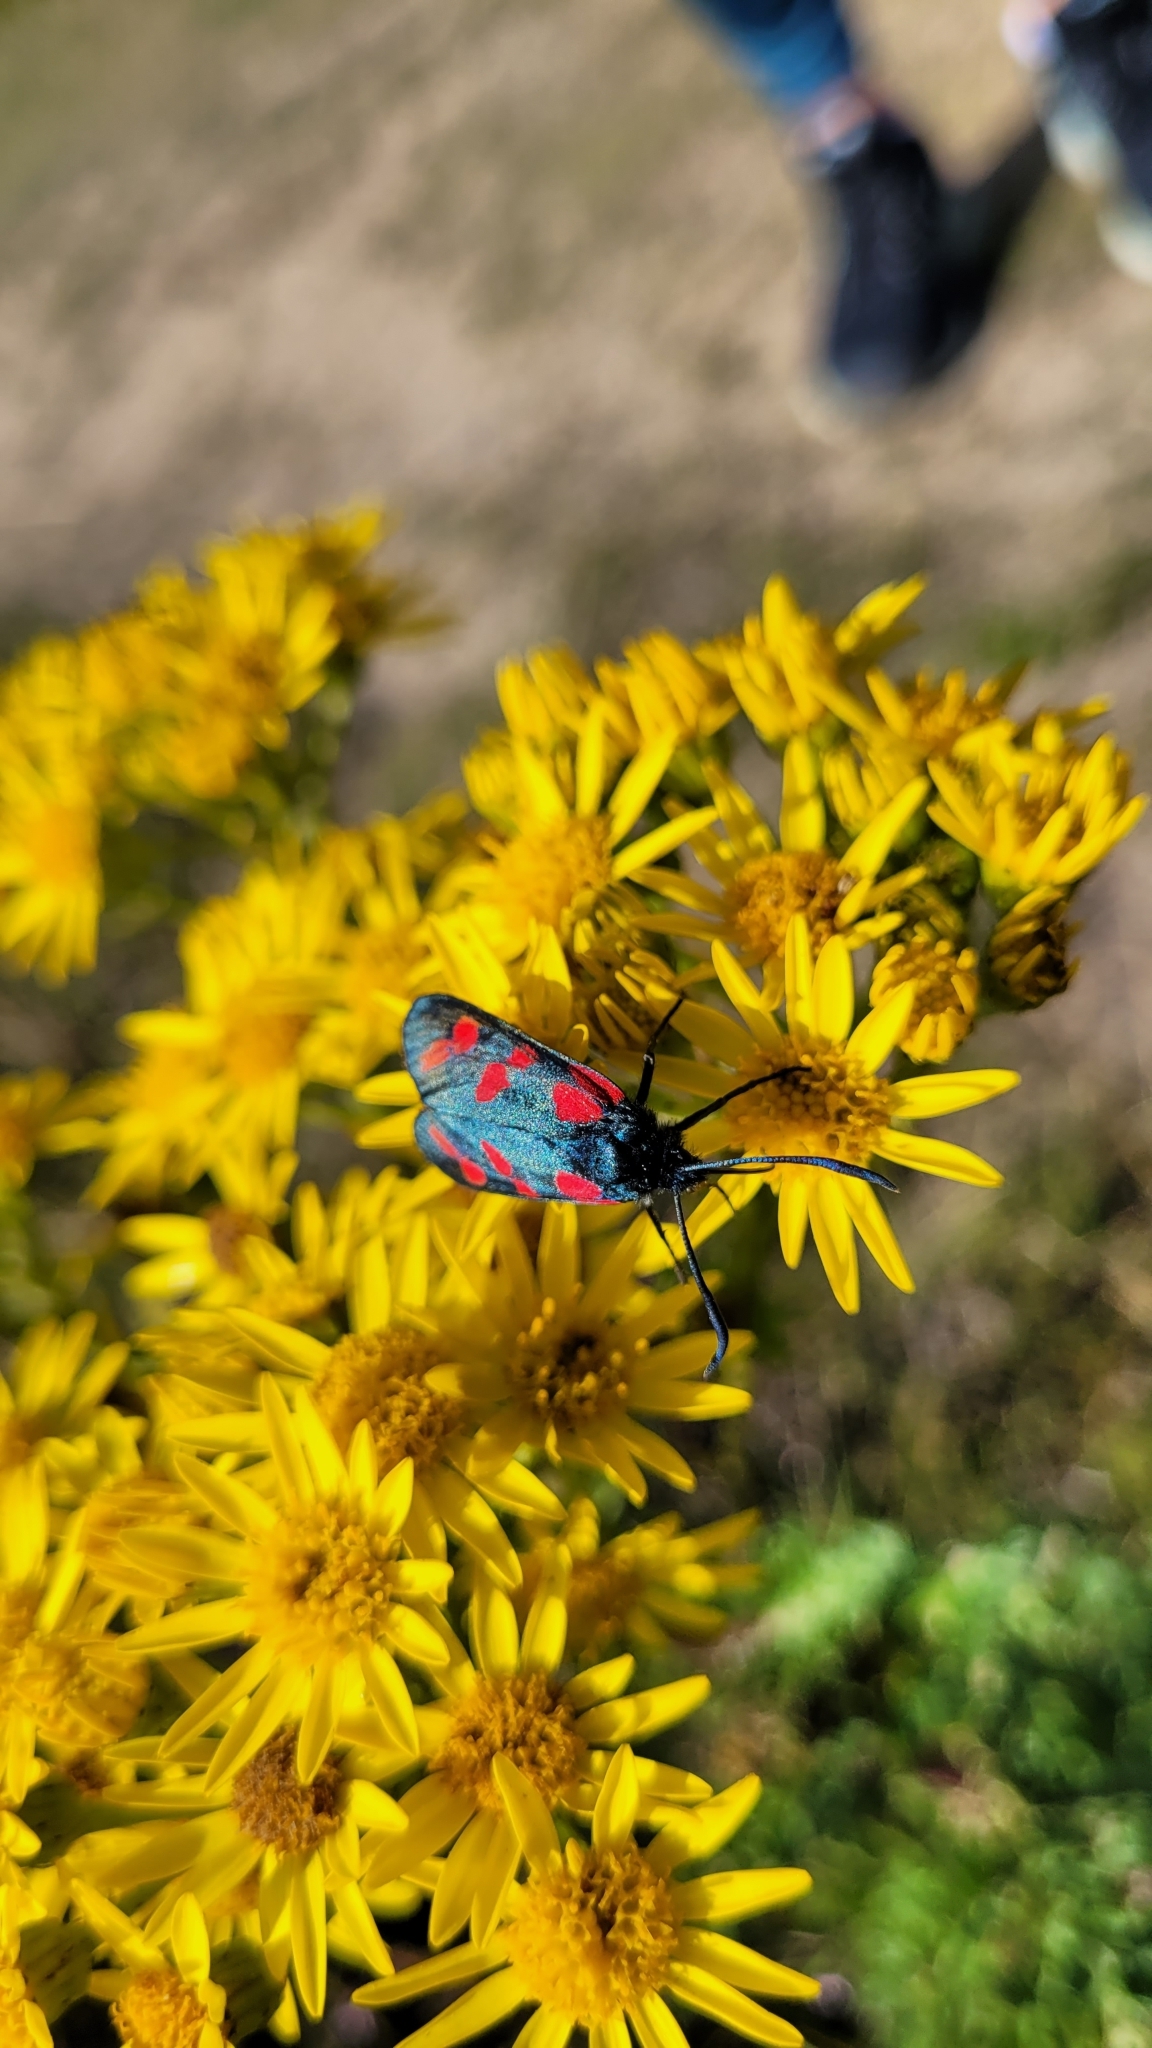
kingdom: Animalia
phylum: Arthropoda
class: Insecta
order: Lepidoptera
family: Zygaenidae
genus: Zygaena
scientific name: Zygaena filipendulae
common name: Six-spot burnet
